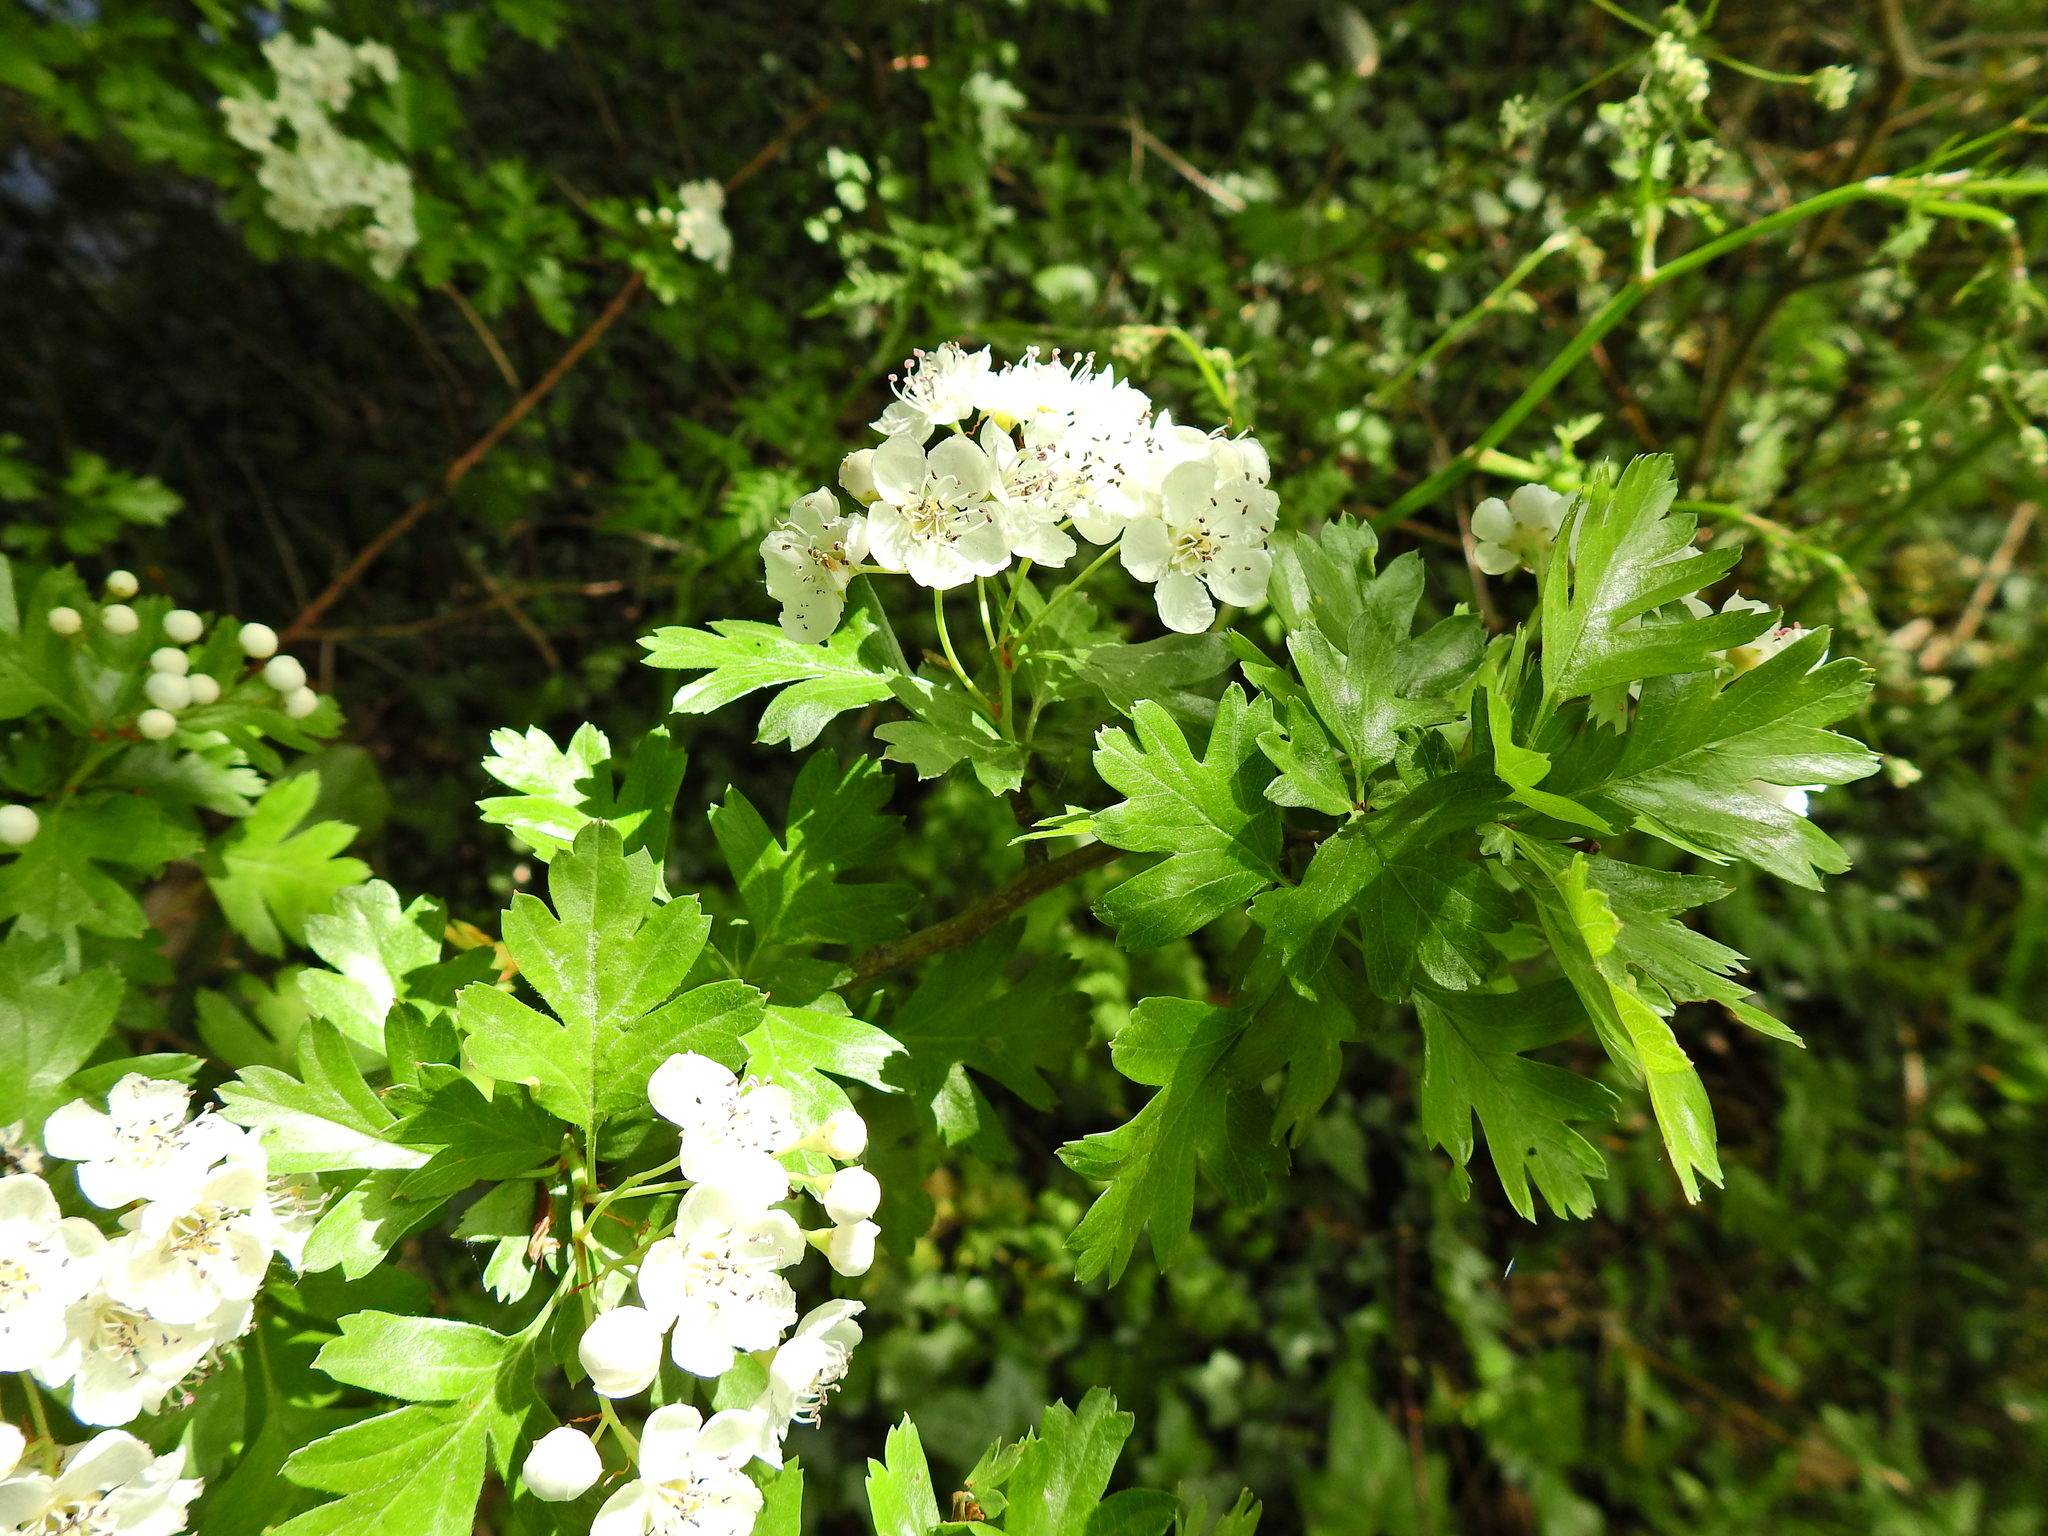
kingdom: Plantae
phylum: Tracheophyta
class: Magnoliopsida
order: Rosales
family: Rosaceae
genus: Crataegus
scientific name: Crataegus monogyna
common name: Hawthorn
